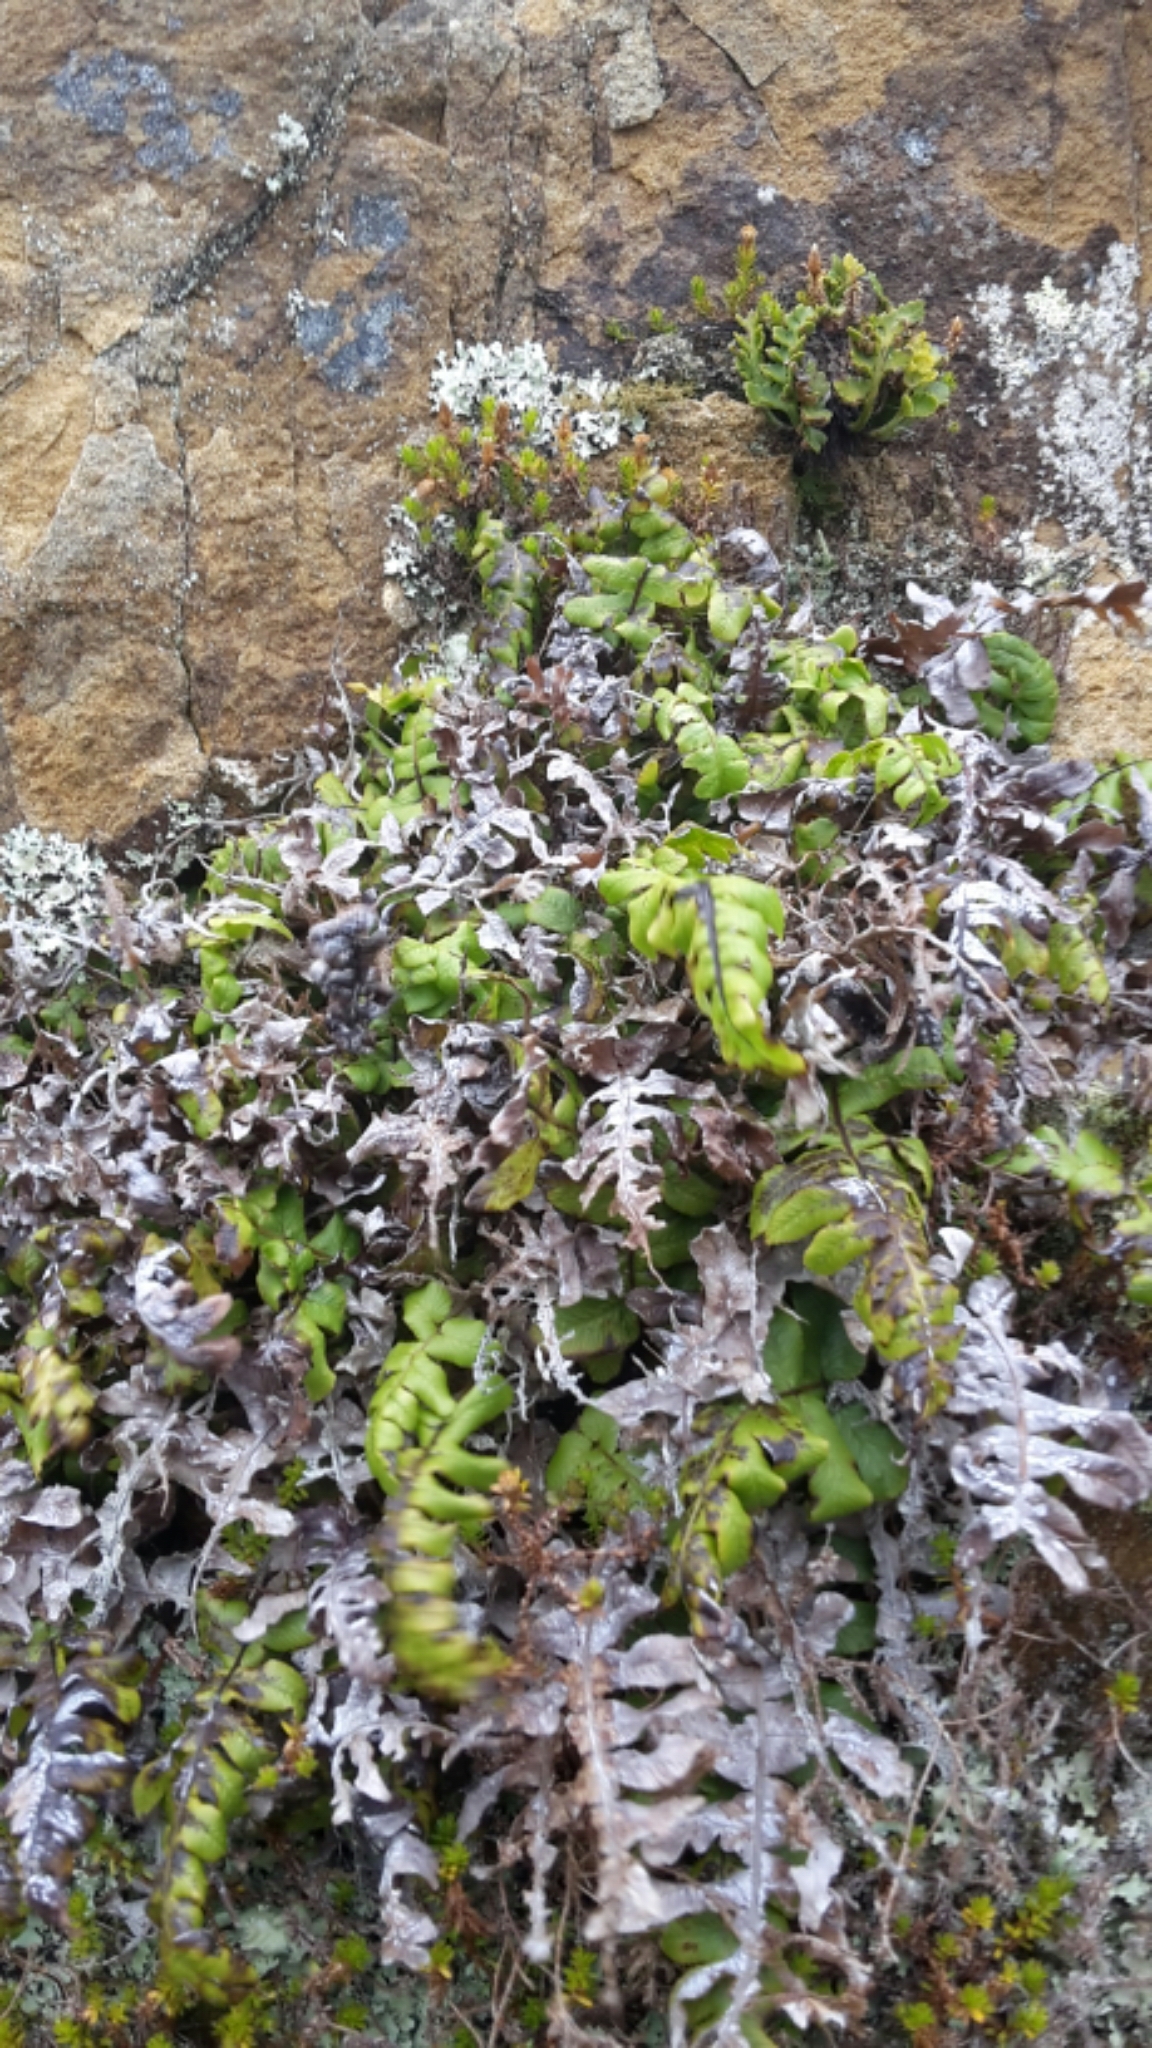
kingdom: Plantae
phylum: Tracheophyta
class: Polypodiopsida
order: Polypodiales
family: Blechnaceae
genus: Cranfillia
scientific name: Cranfillia deltoides
